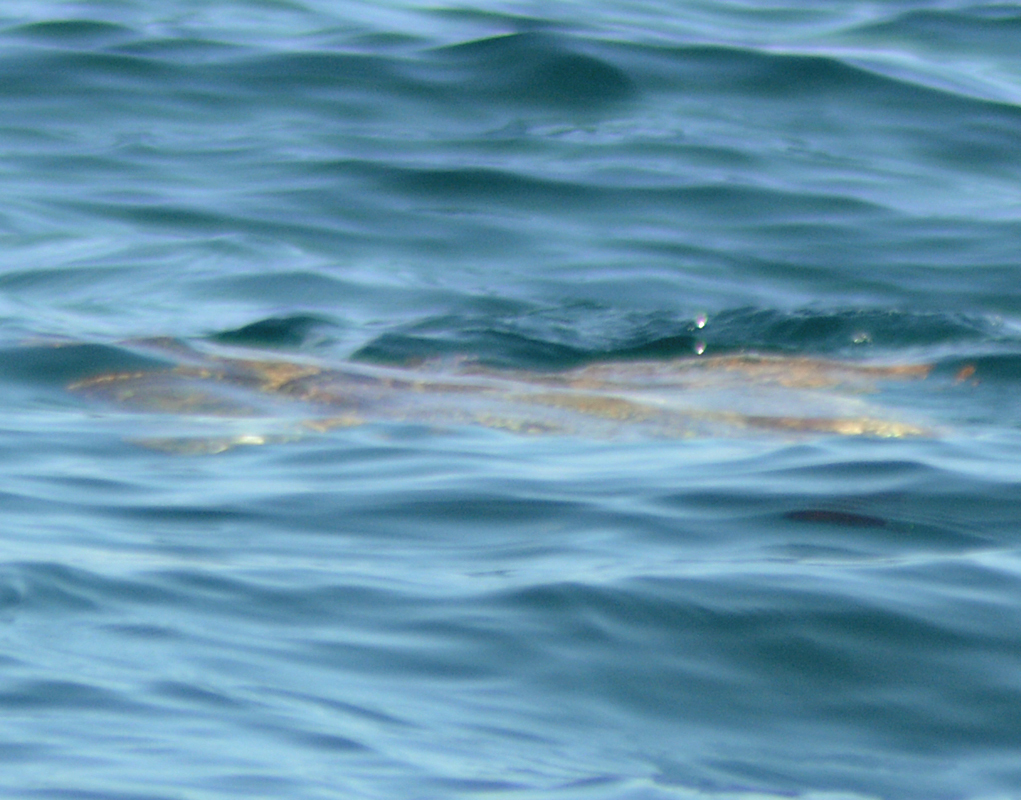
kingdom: Animalia
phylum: Chordata
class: Testudines
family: Cheloniidae
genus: Caretta
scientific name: Caretta caretta
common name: Loggerhead sea turtle
